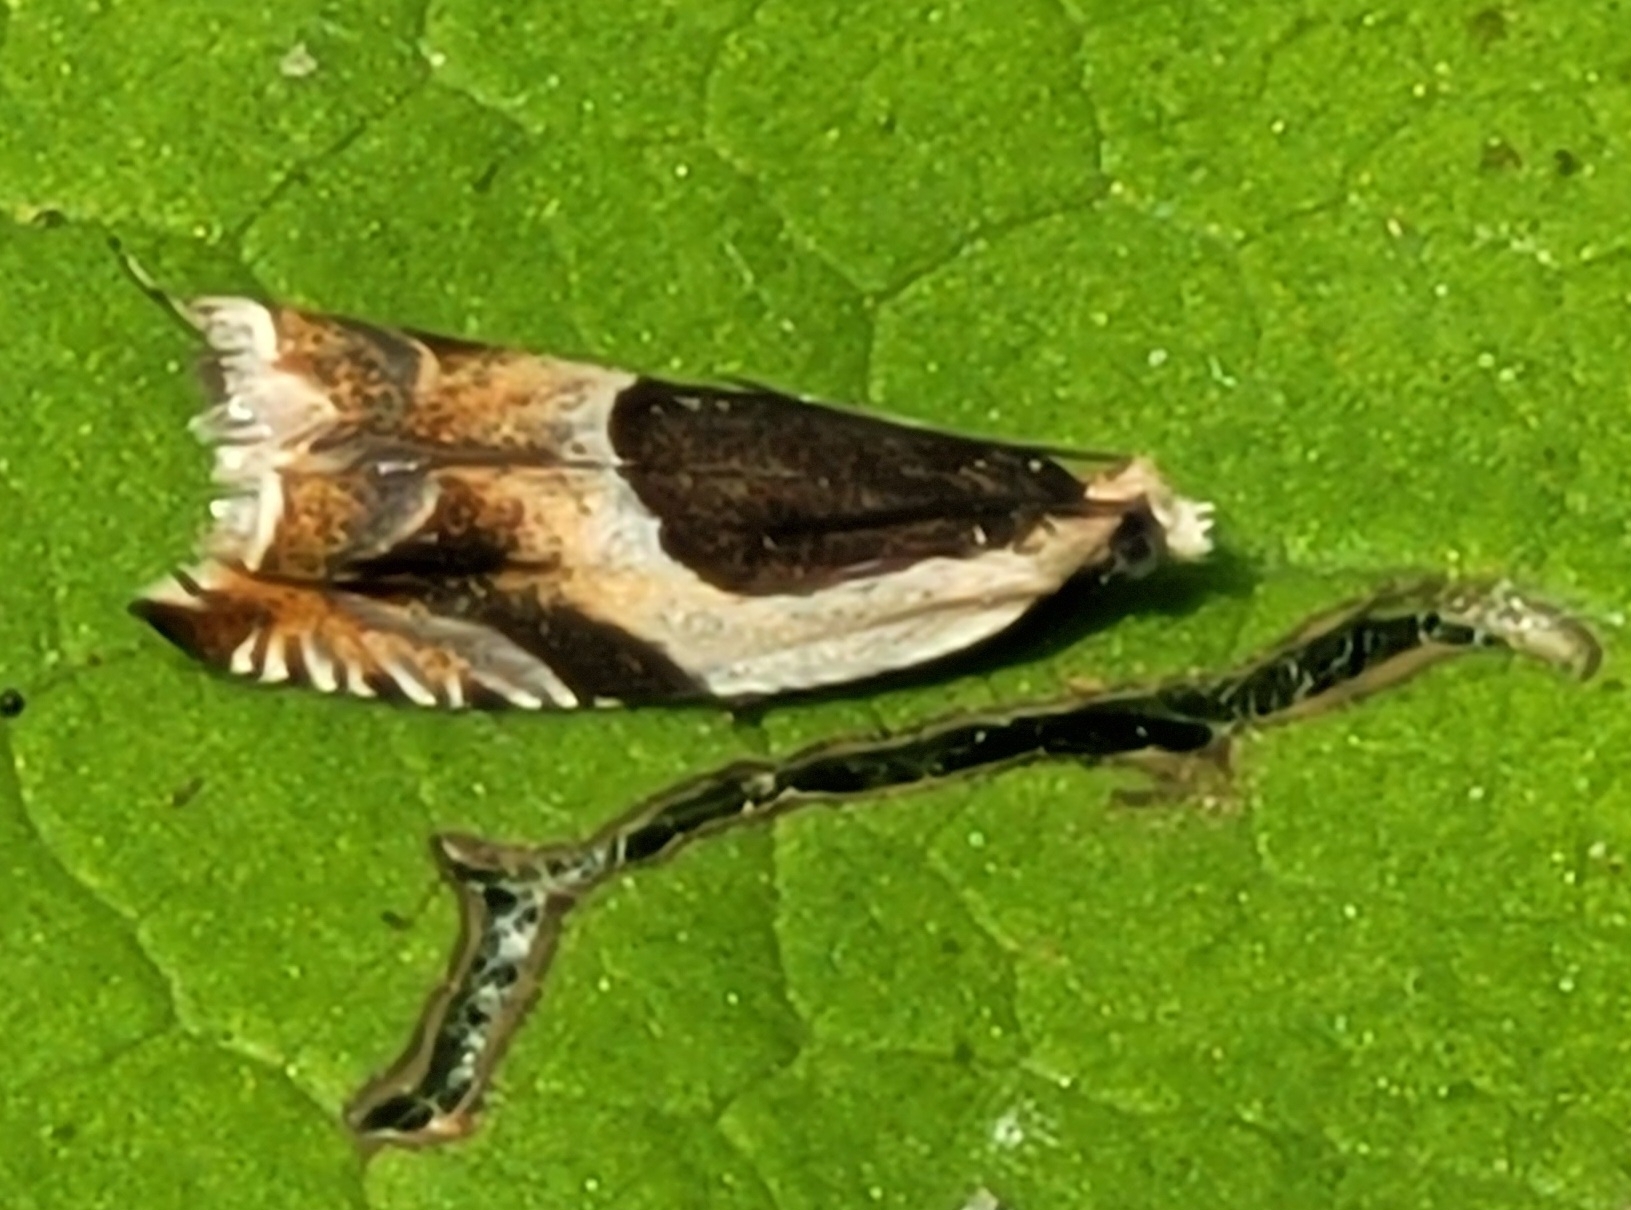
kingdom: Animalia
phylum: Arthropoda
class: Insecta
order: Lepidoptera
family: Tortricidae
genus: Ancylis
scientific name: Ancylis badiana
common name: Common roller
